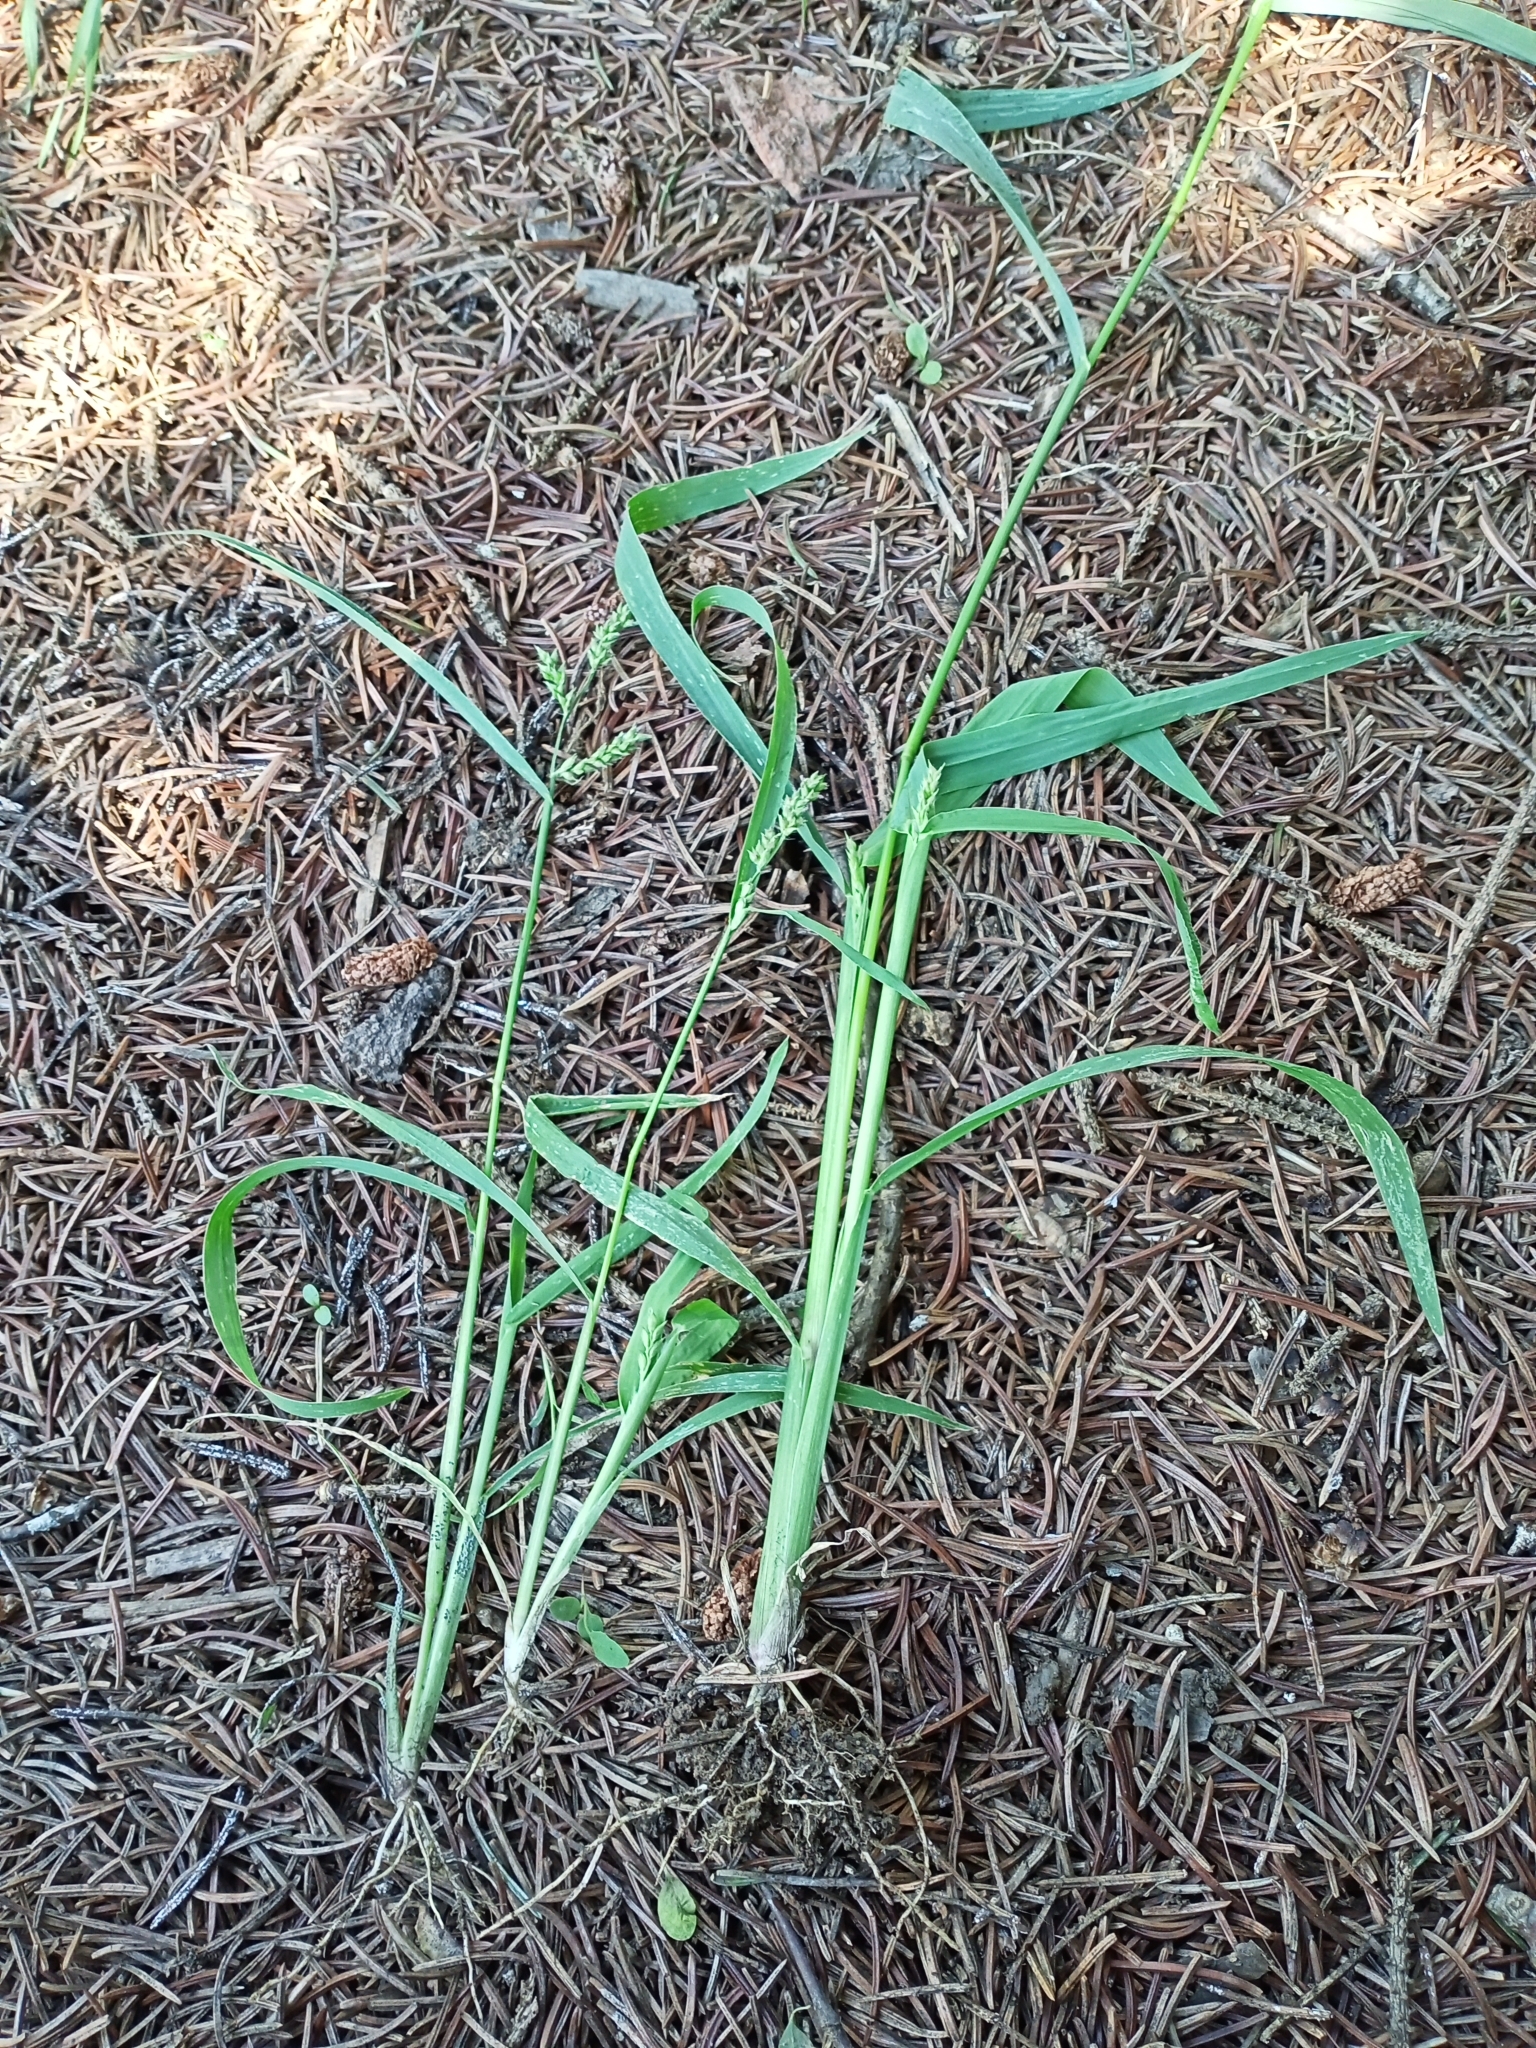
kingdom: Plantae
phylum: Tracheophyta
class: Liliopsida
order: Poales
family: Poaceae
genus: Echinochloa
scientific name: Echinochloa crus-galli
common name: Cockspur
